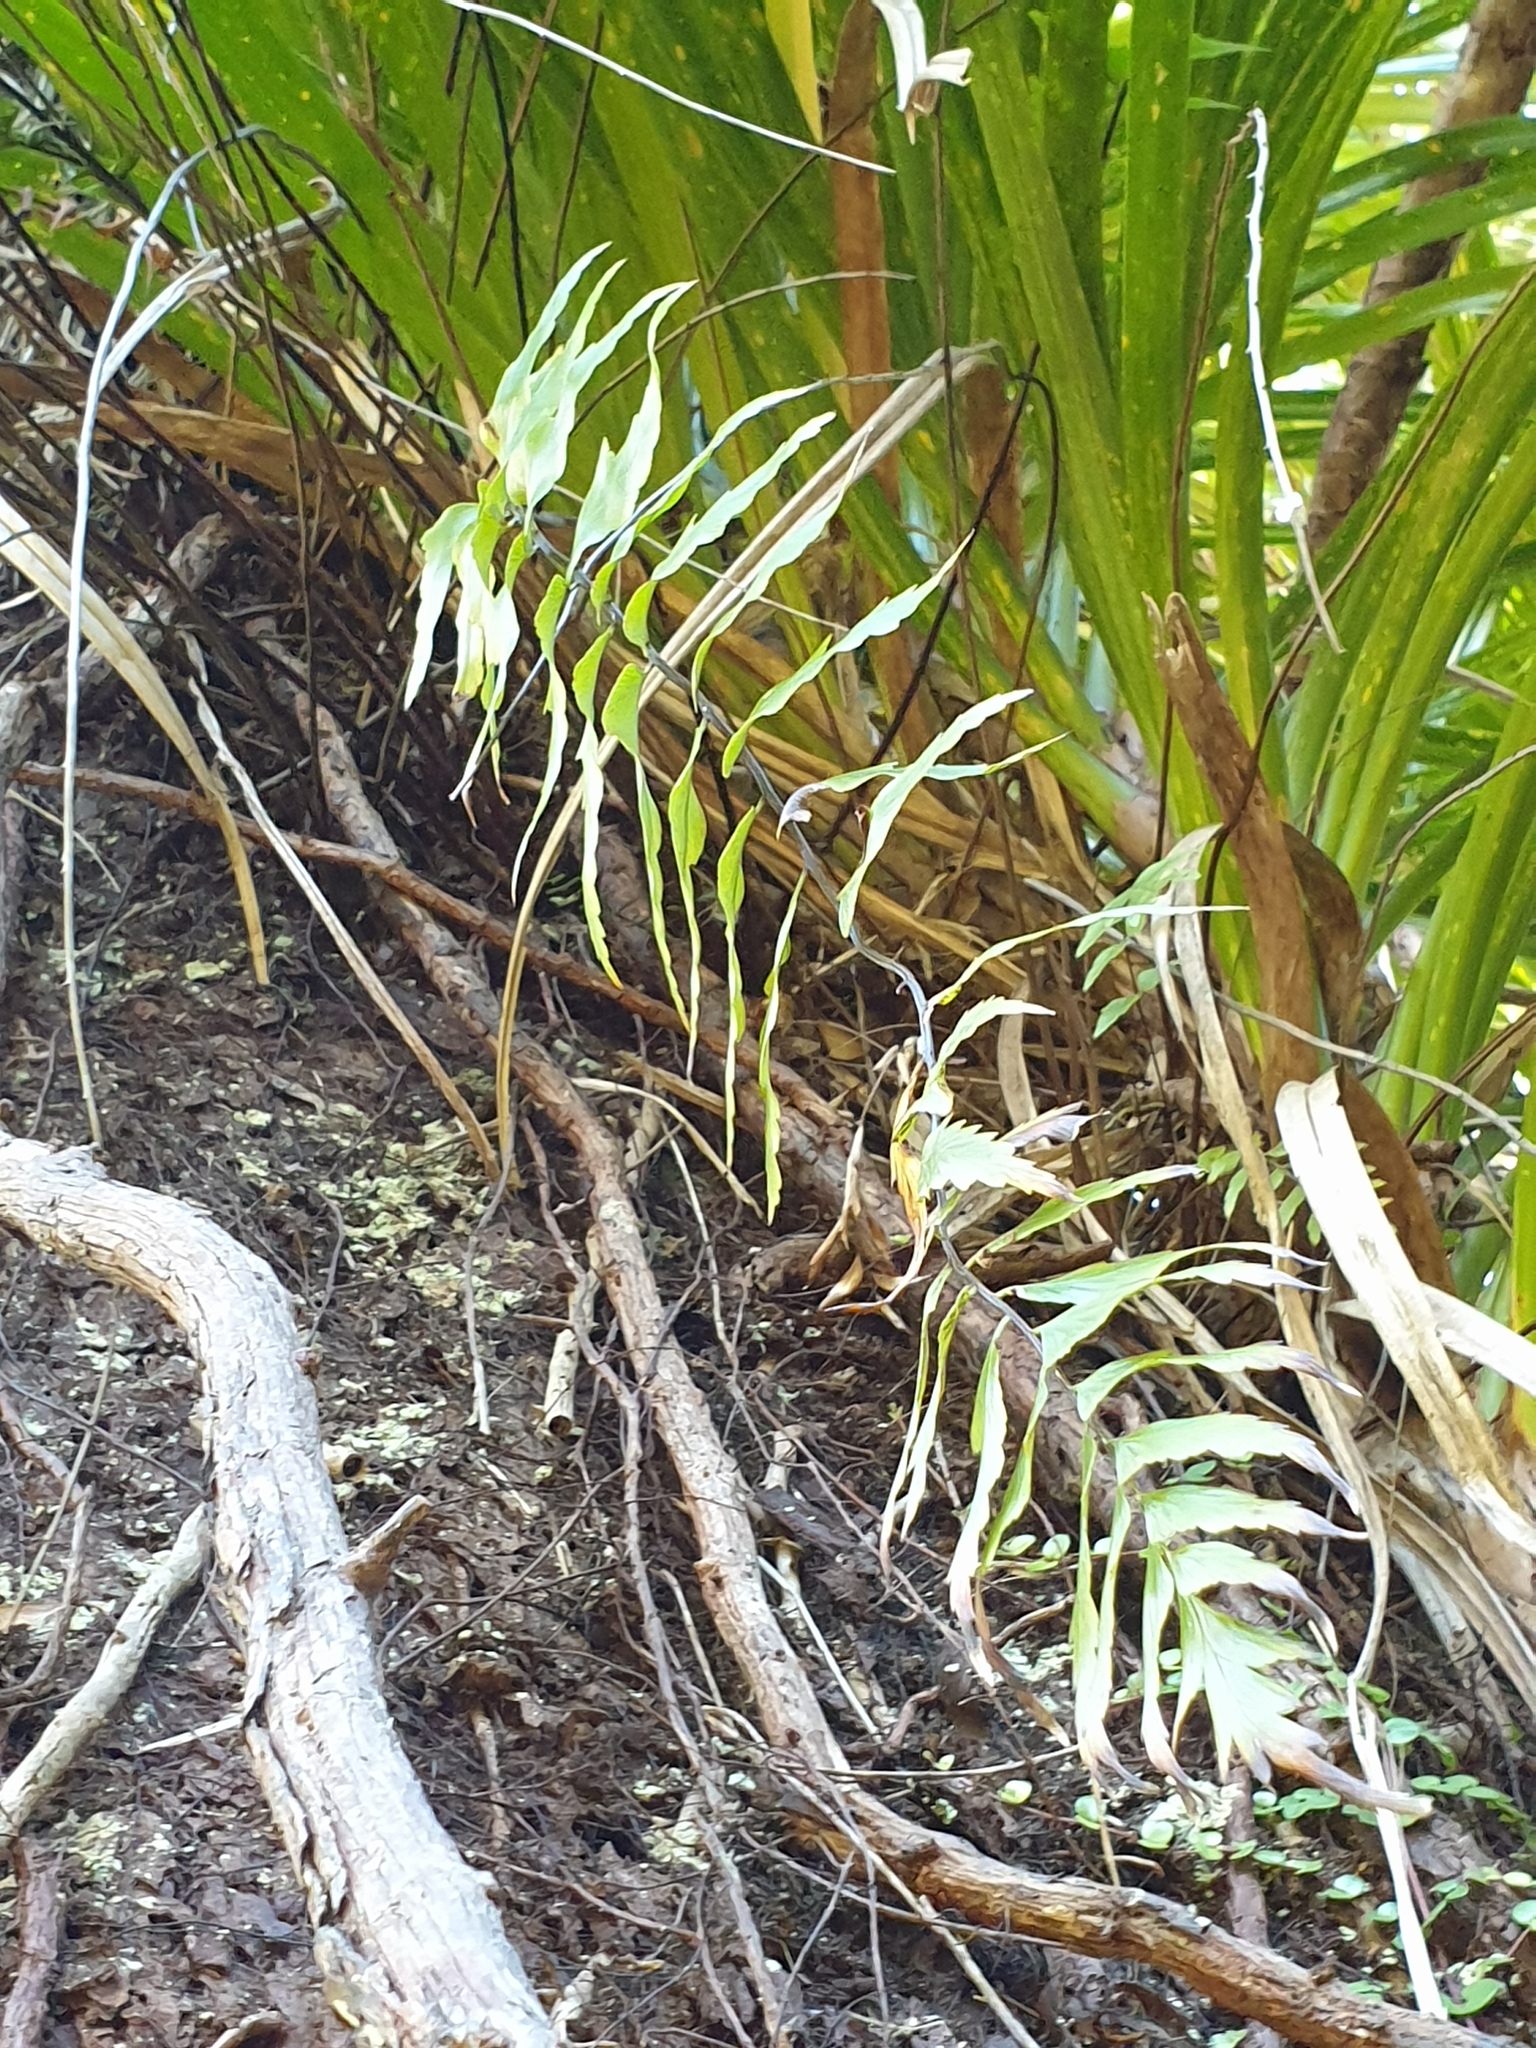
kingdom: Plantae
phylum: Tracheophyta
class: Polypodiopsida
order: Polypodiales
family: Aspleniaceae
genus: Asplenium
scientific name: Asplenium polyodon
